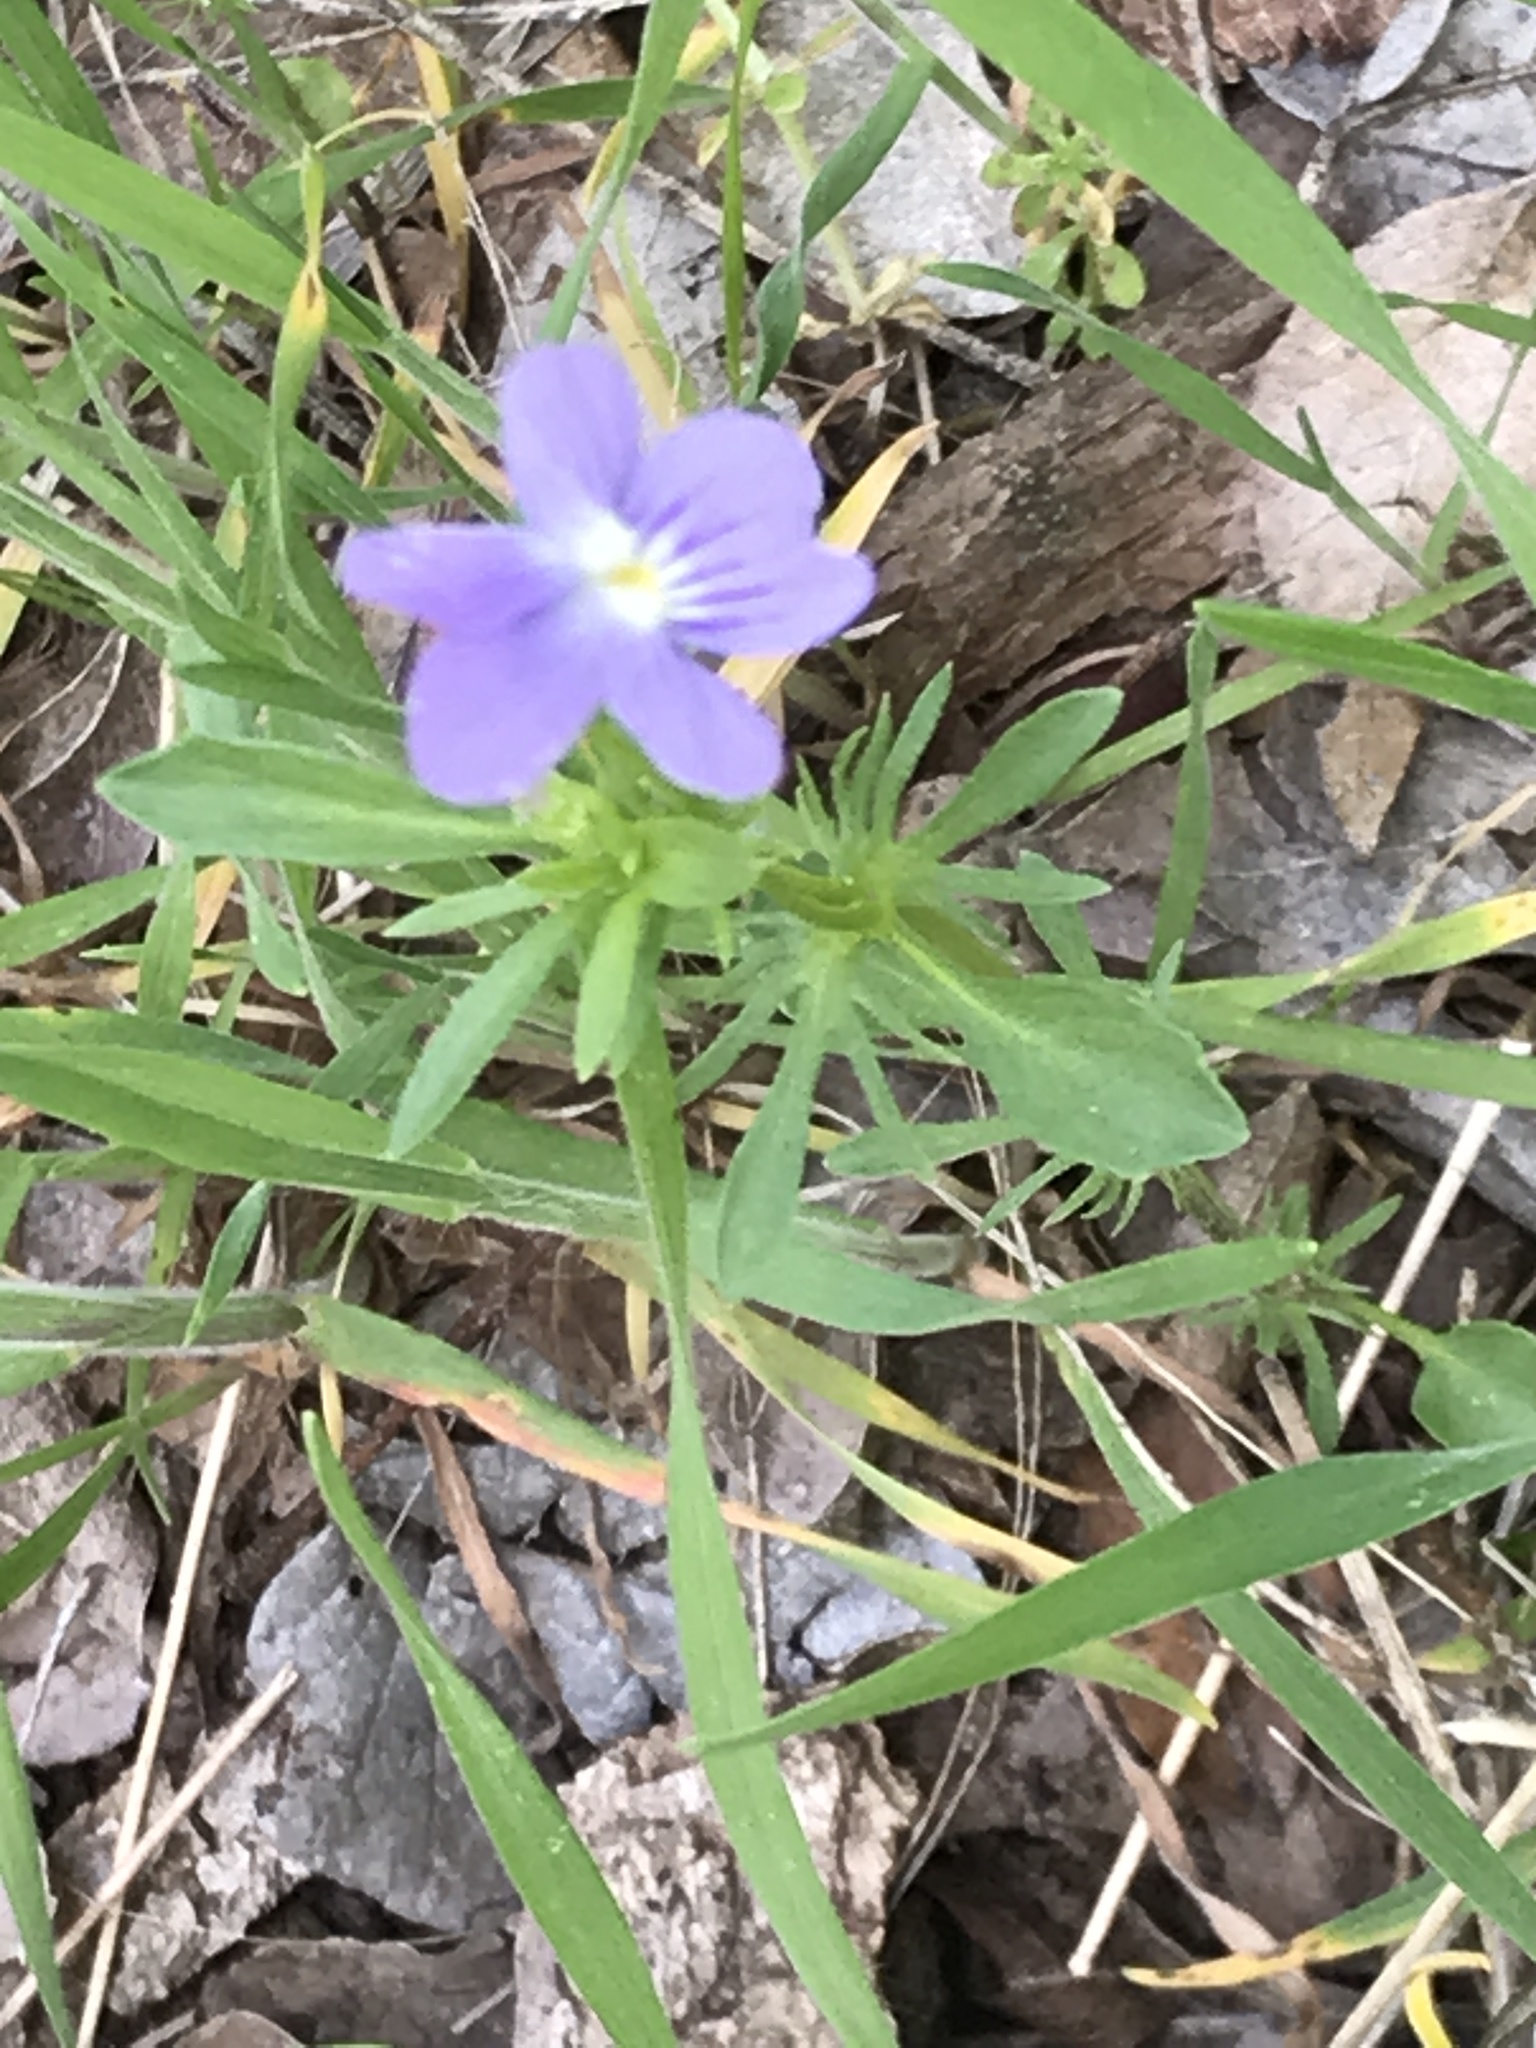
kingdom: Plantae
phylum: Tracheophyta
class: Magnoliopsida
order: Malpighiales
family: Violaceae
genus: Viola
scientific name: Viola rafinesquei
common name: American field pansy
